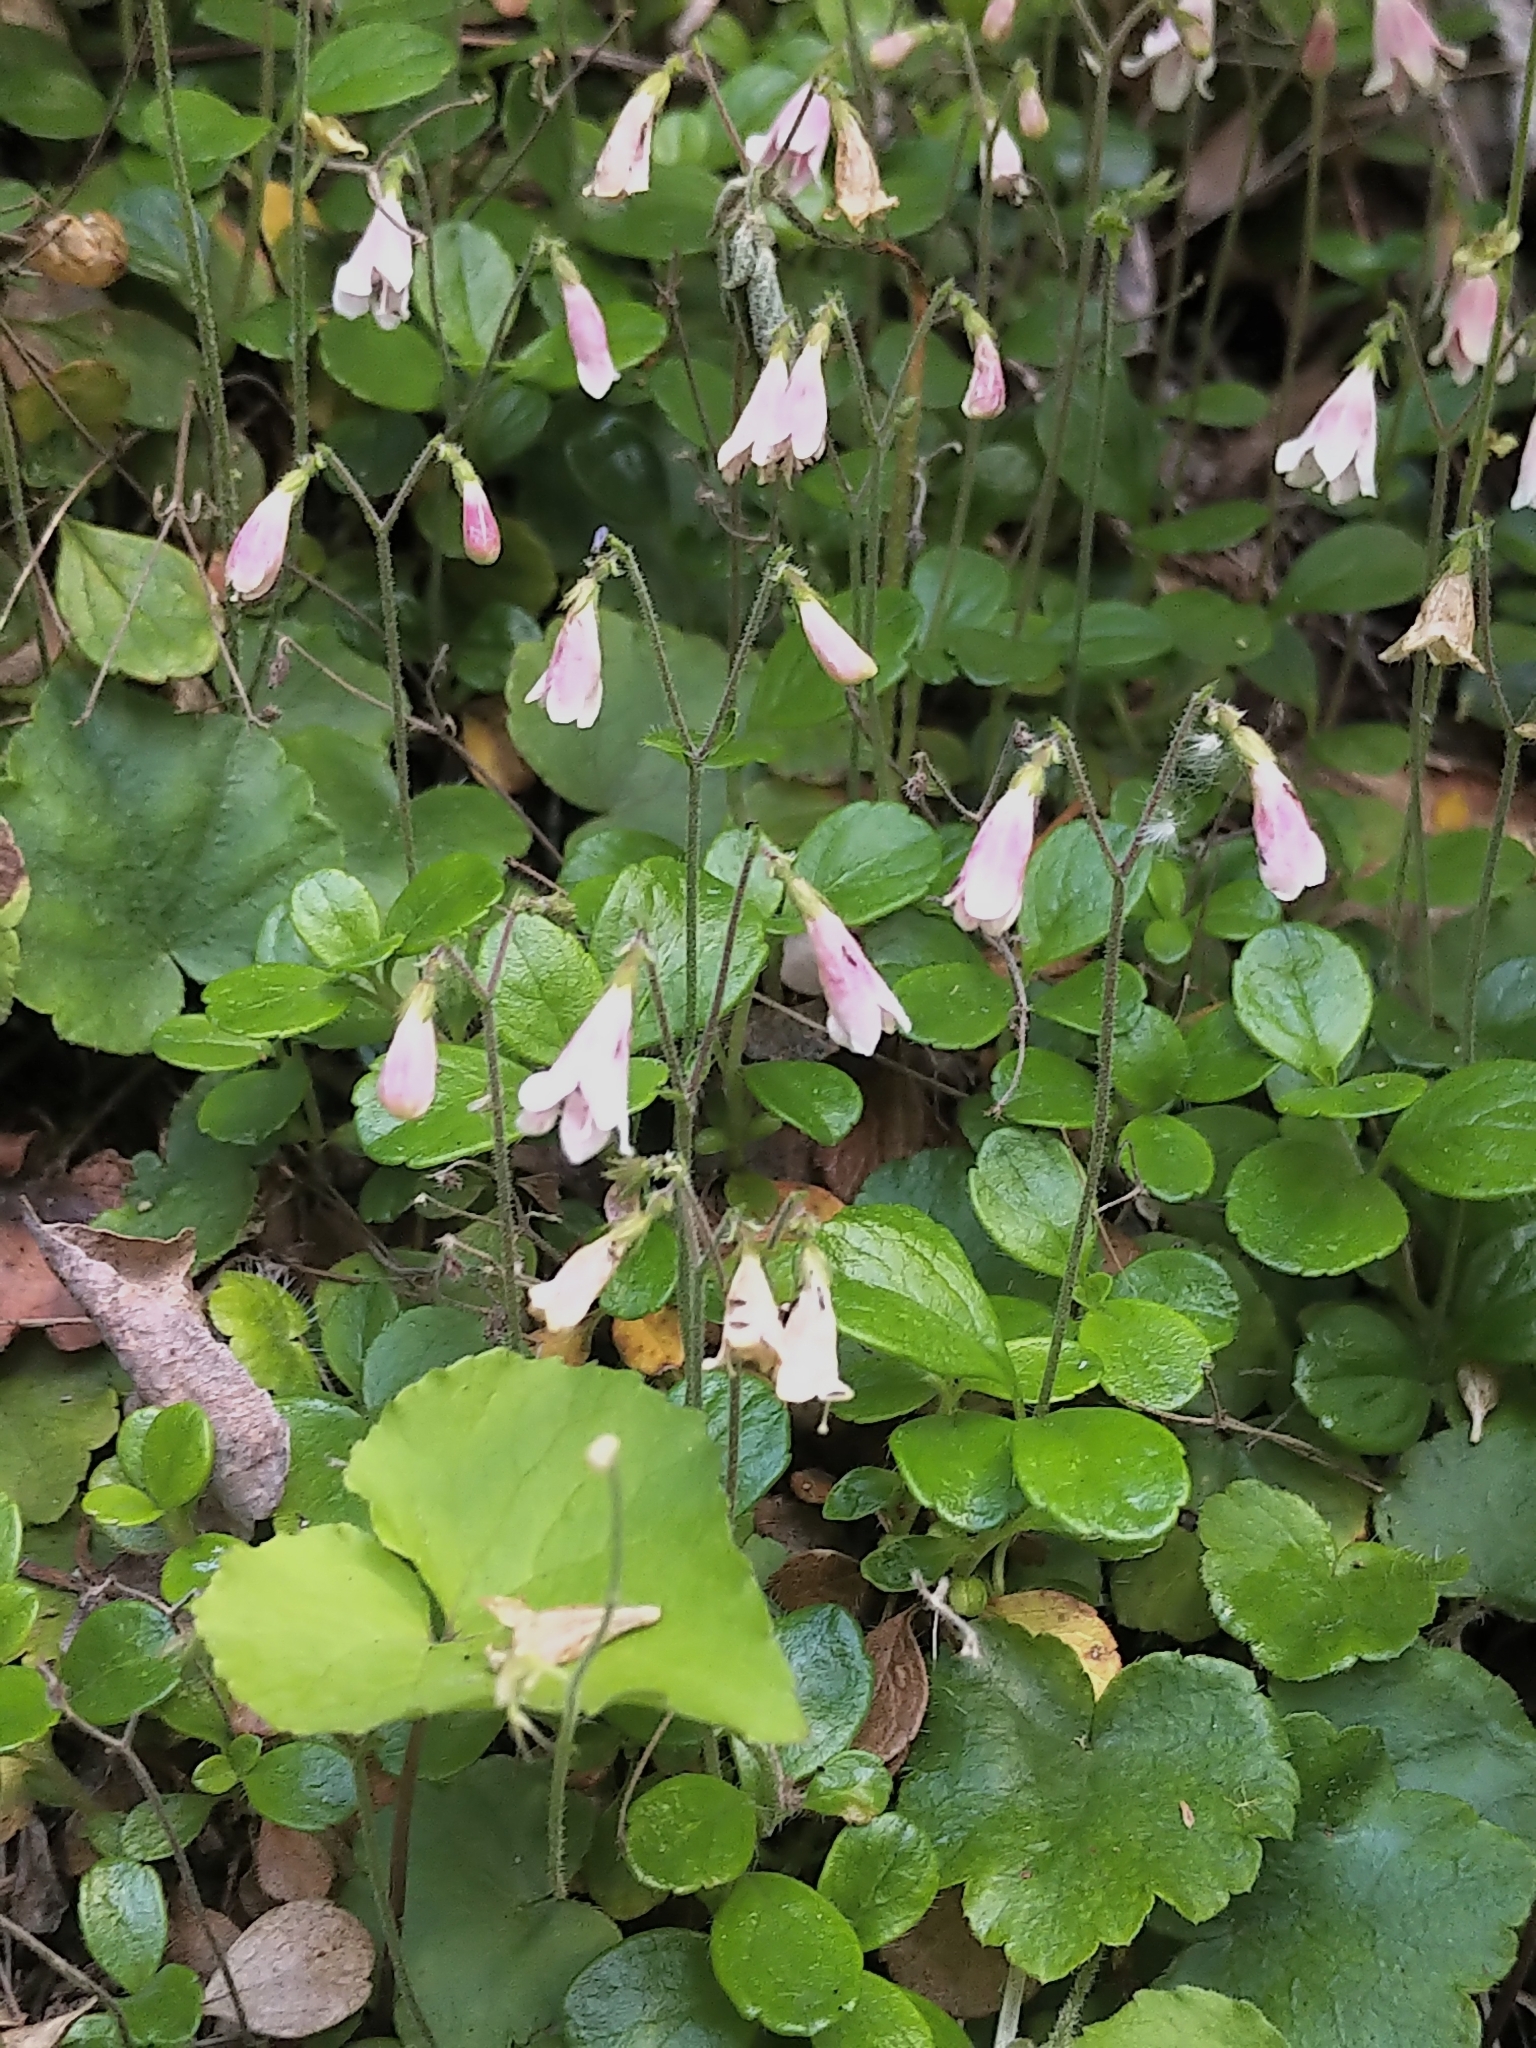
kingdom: Plantae
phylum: Tracheophyta
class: Magnoliopsida
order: Dipsacales
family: Caprifoliaceae
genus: Linnaea
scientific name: Linnaea borealis
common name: Twinflower
